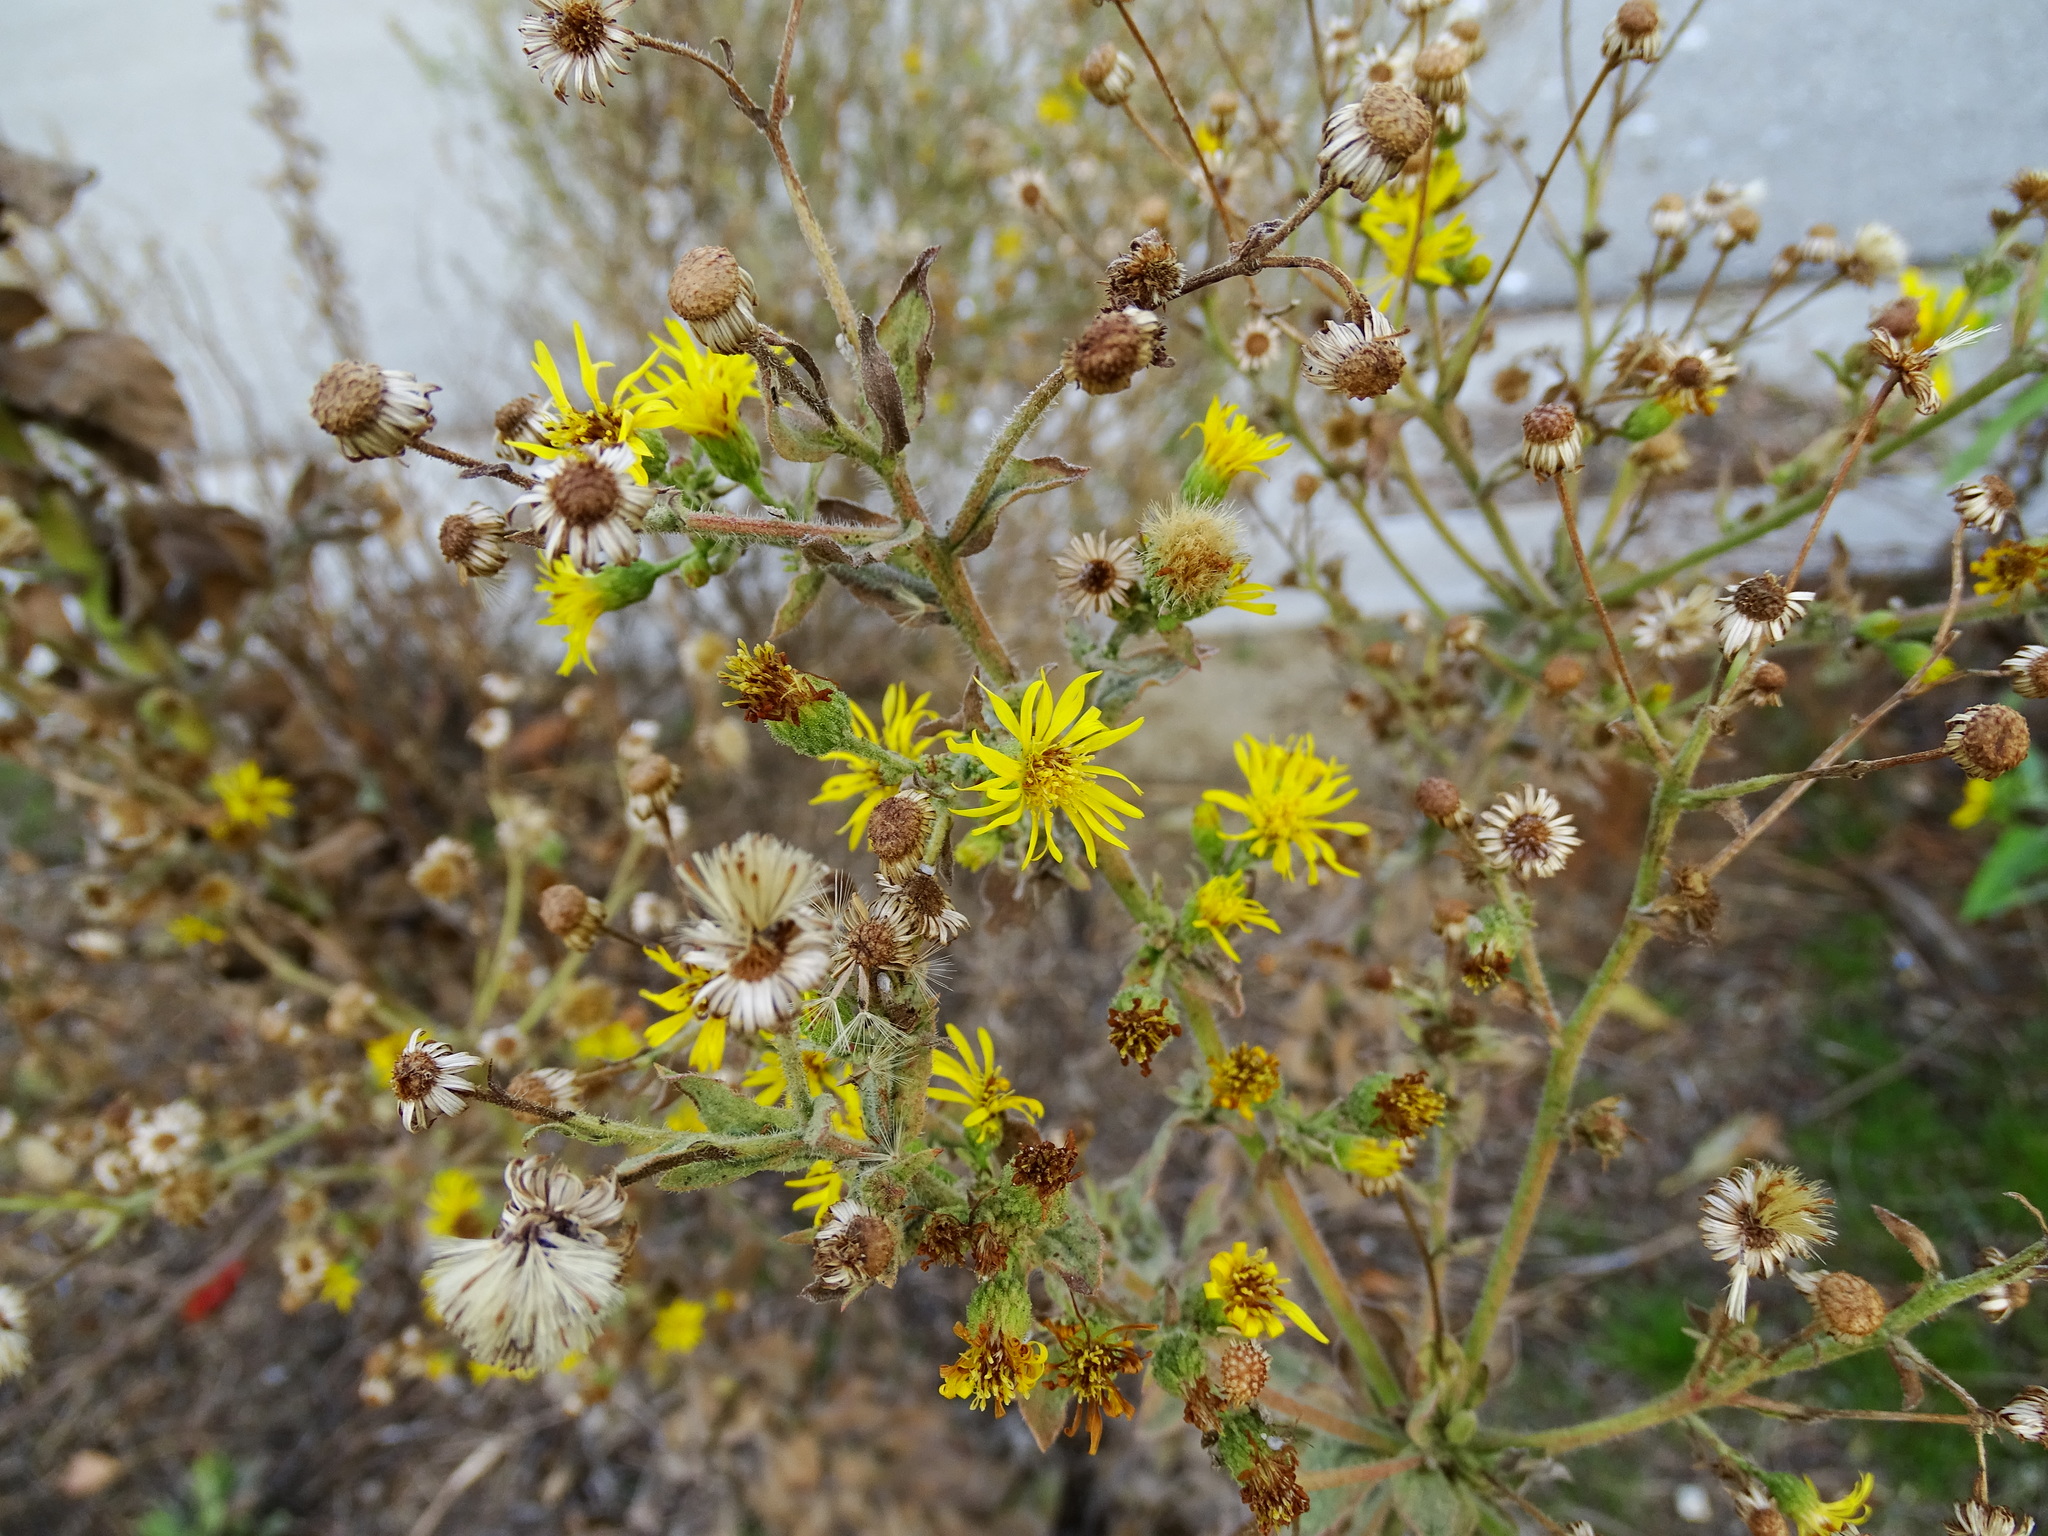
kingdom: Plantae
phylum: Tracheophyta
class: Magnoliopsida
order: Asterales
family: Asteraceae
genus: Heterotheca
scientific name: Heterotheca grandiflora
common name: Telegraphweed
